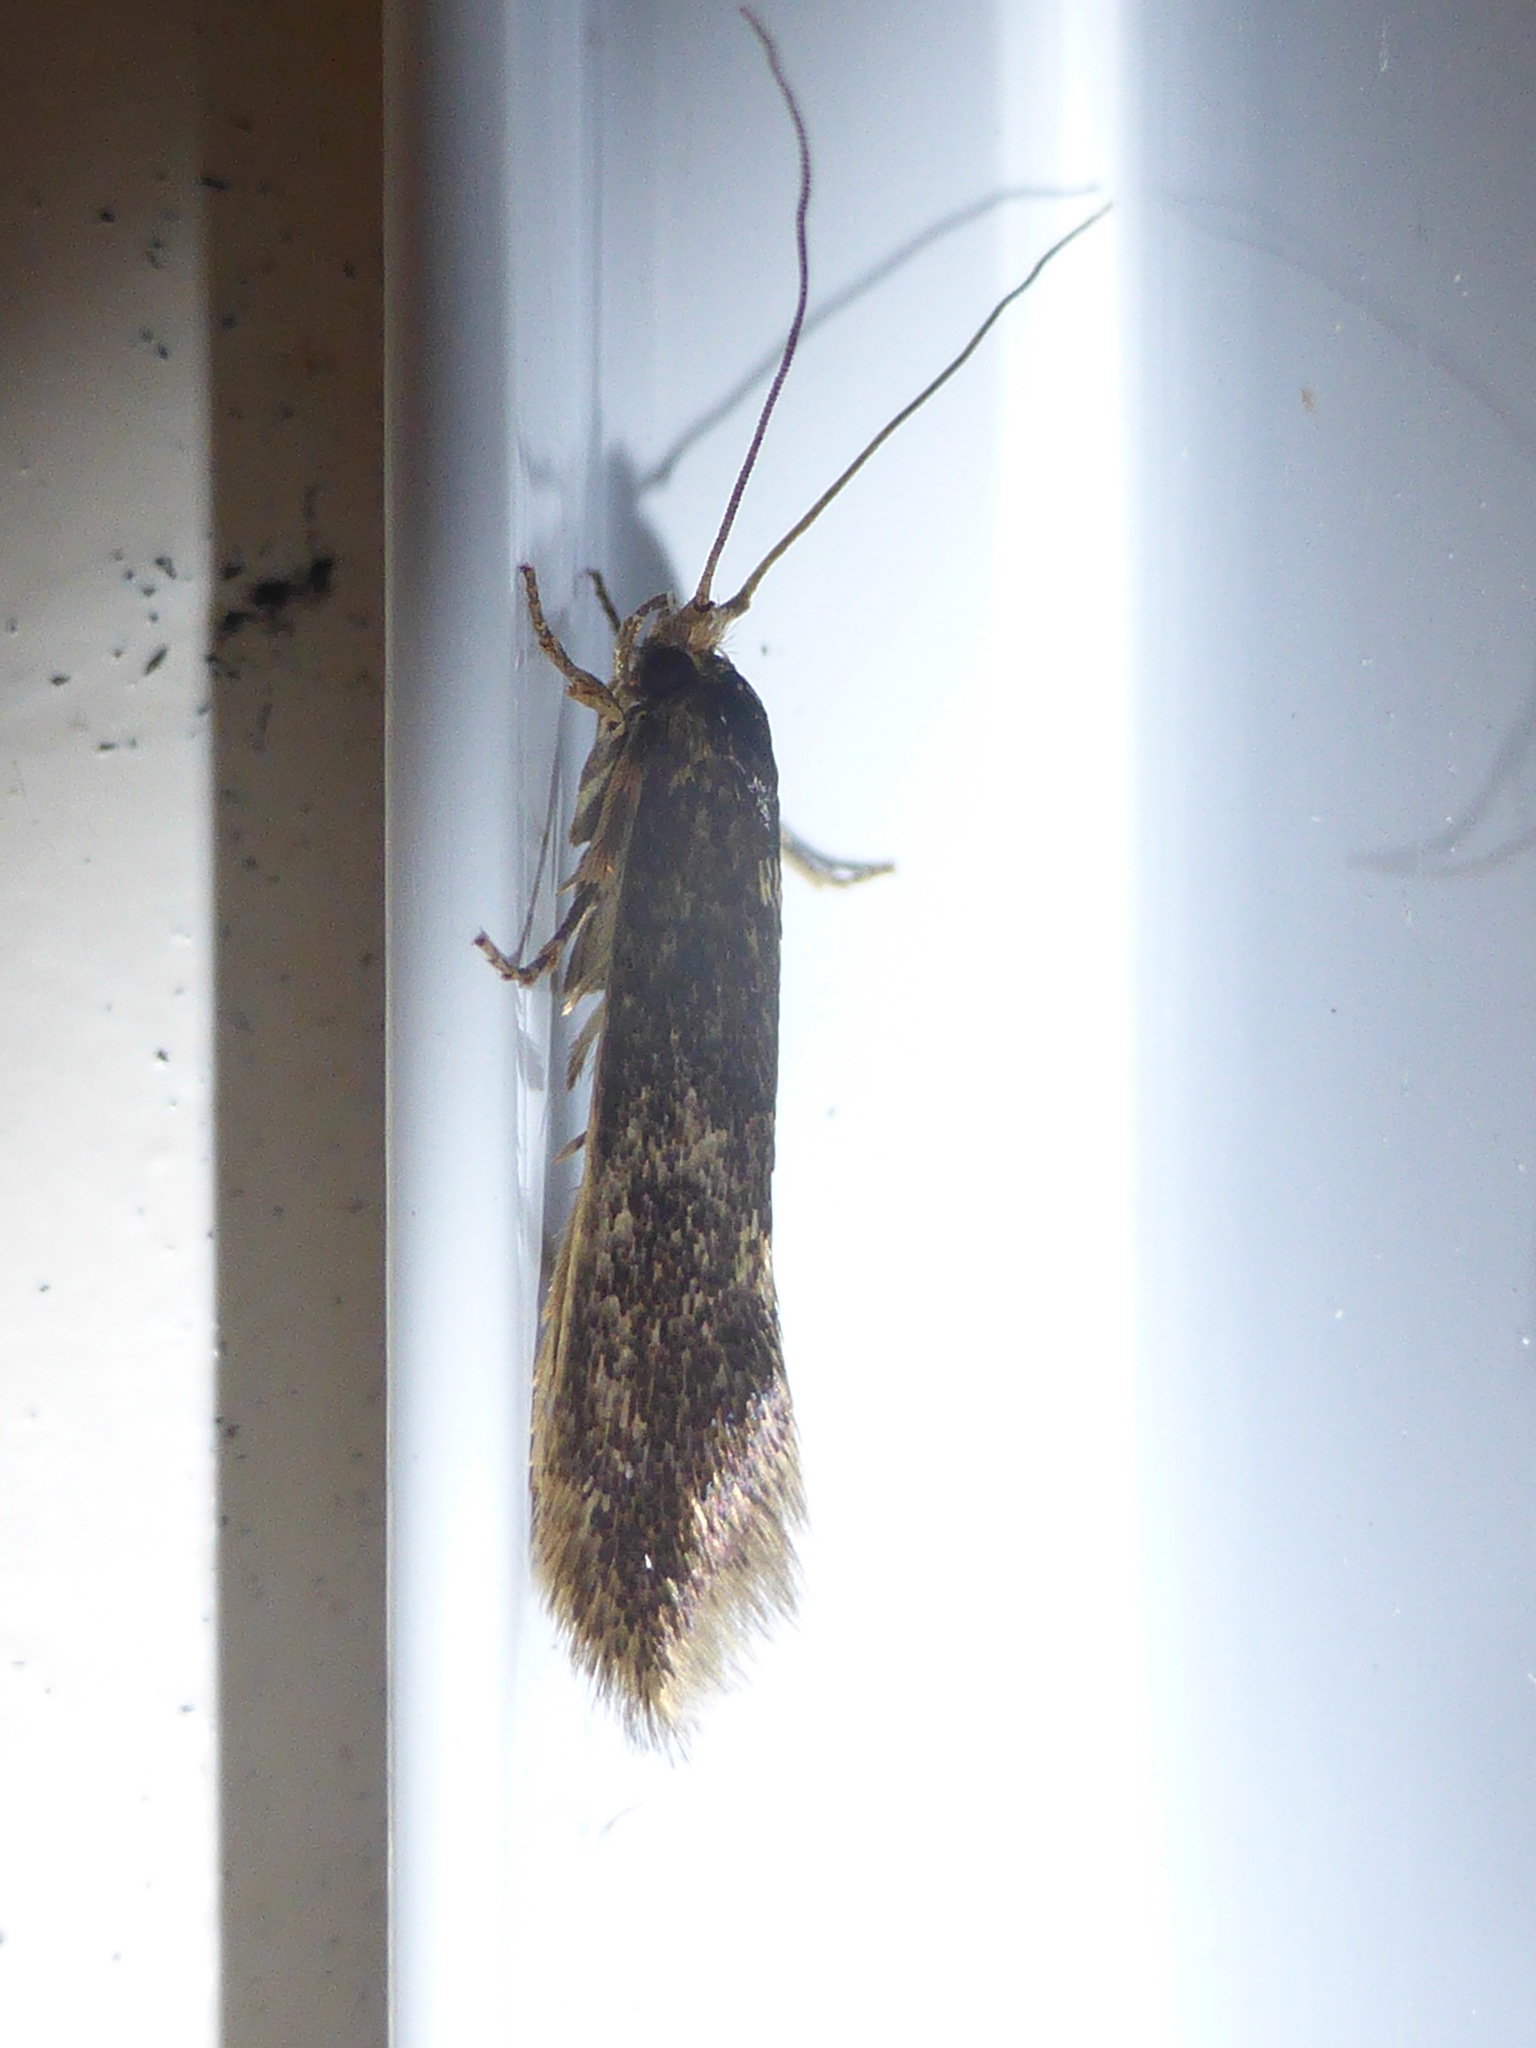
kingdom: Animalia
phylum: Arthropoda
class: Insecta
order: Lepidoptera
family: Tineidae
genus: Opogona
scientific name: Opogona omoscopa
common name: Moth
